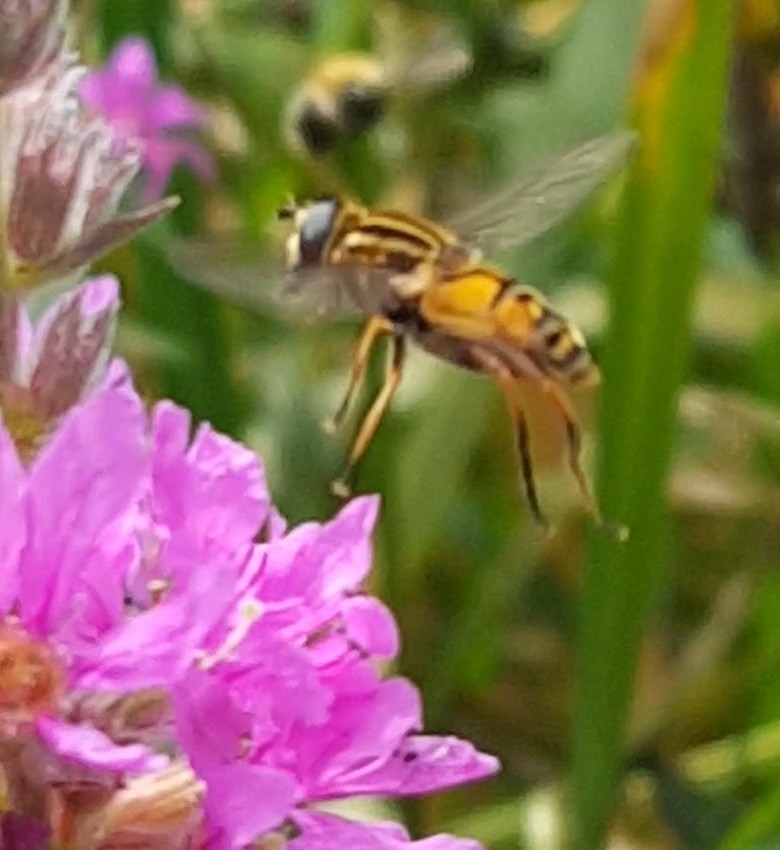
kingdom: Animalia
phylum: Arthropoda
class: Insecta
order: Diptera
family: Syrphidae
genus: Helophilus
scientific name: Helophilus pendulus
